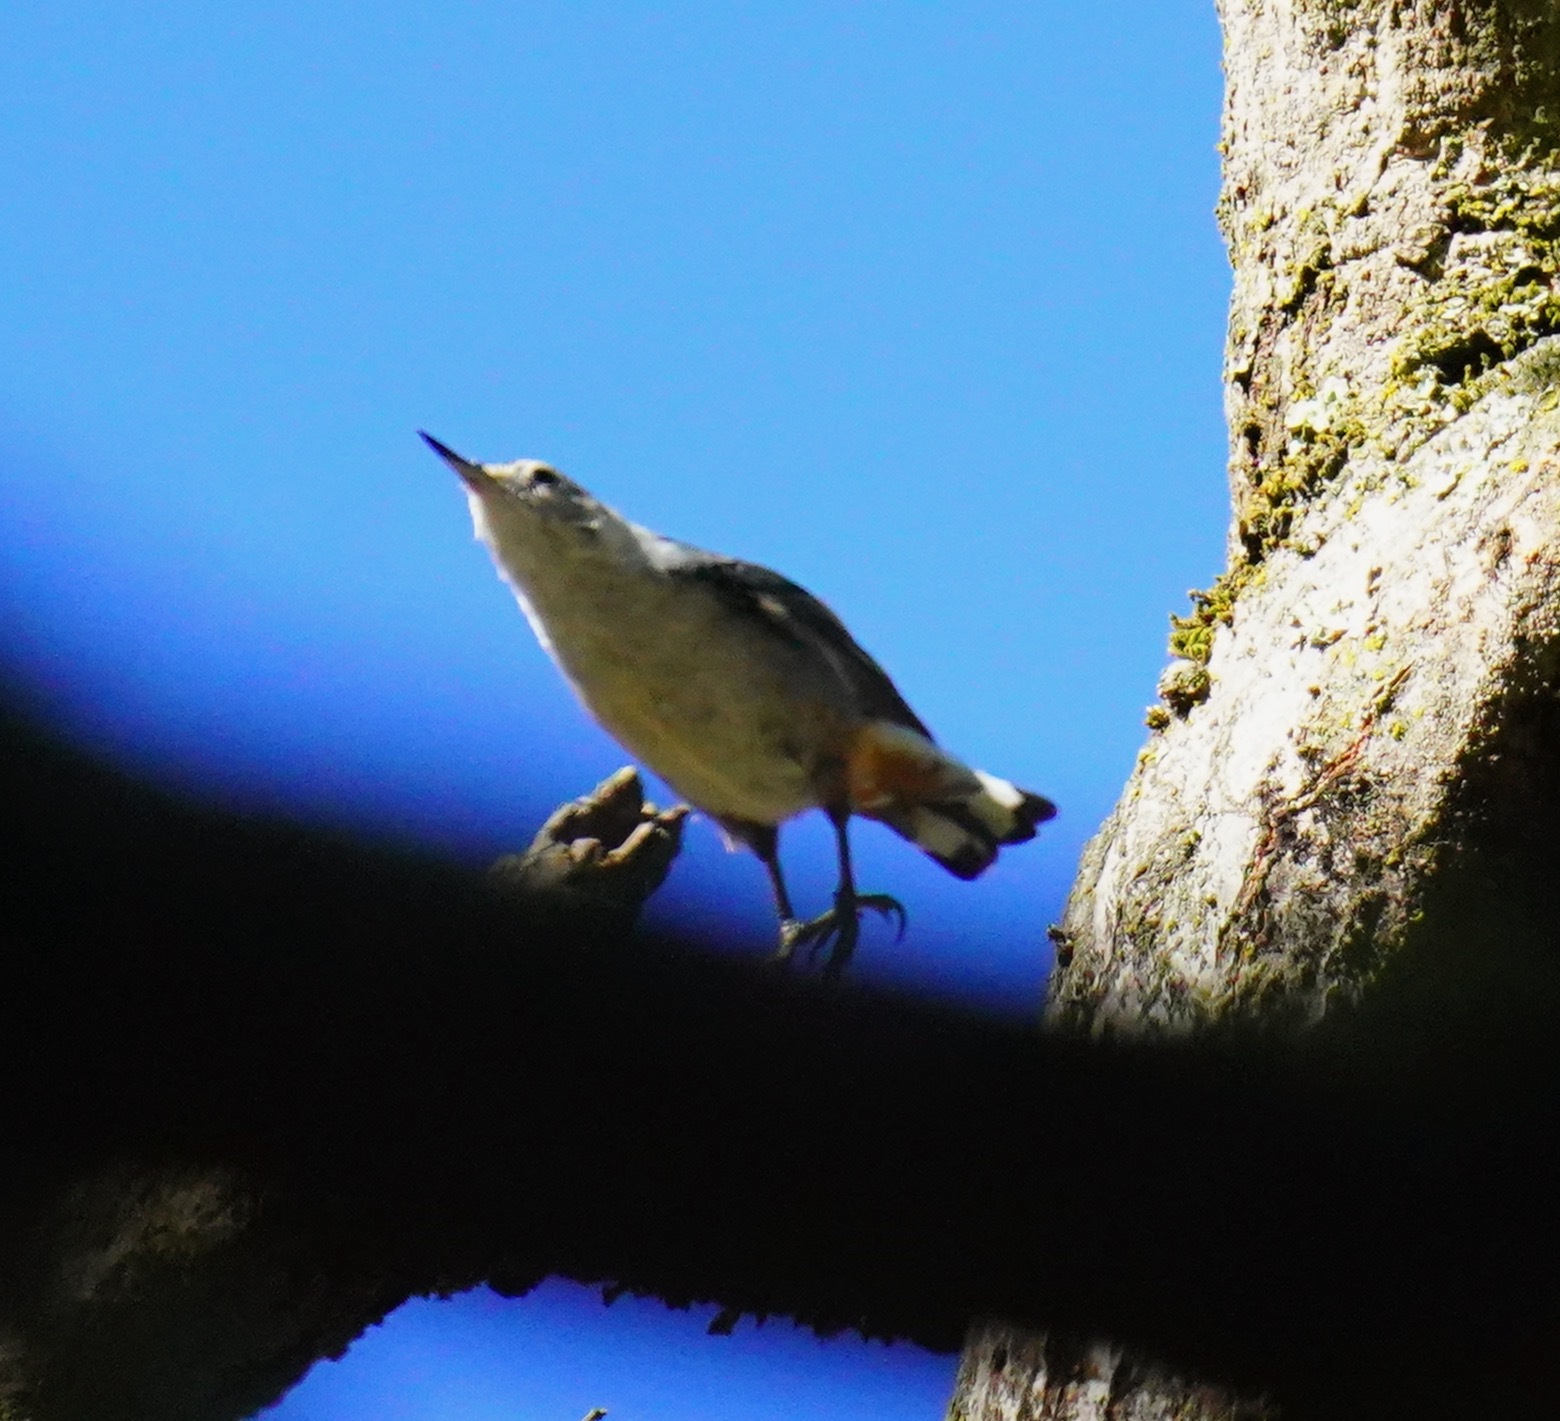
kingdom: Animalia
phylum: Chordata
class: Aves
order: Passeriformes
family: Sittidae
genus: Sitta
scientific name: Sitta carolinensis
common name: White-breasted nuthatch
